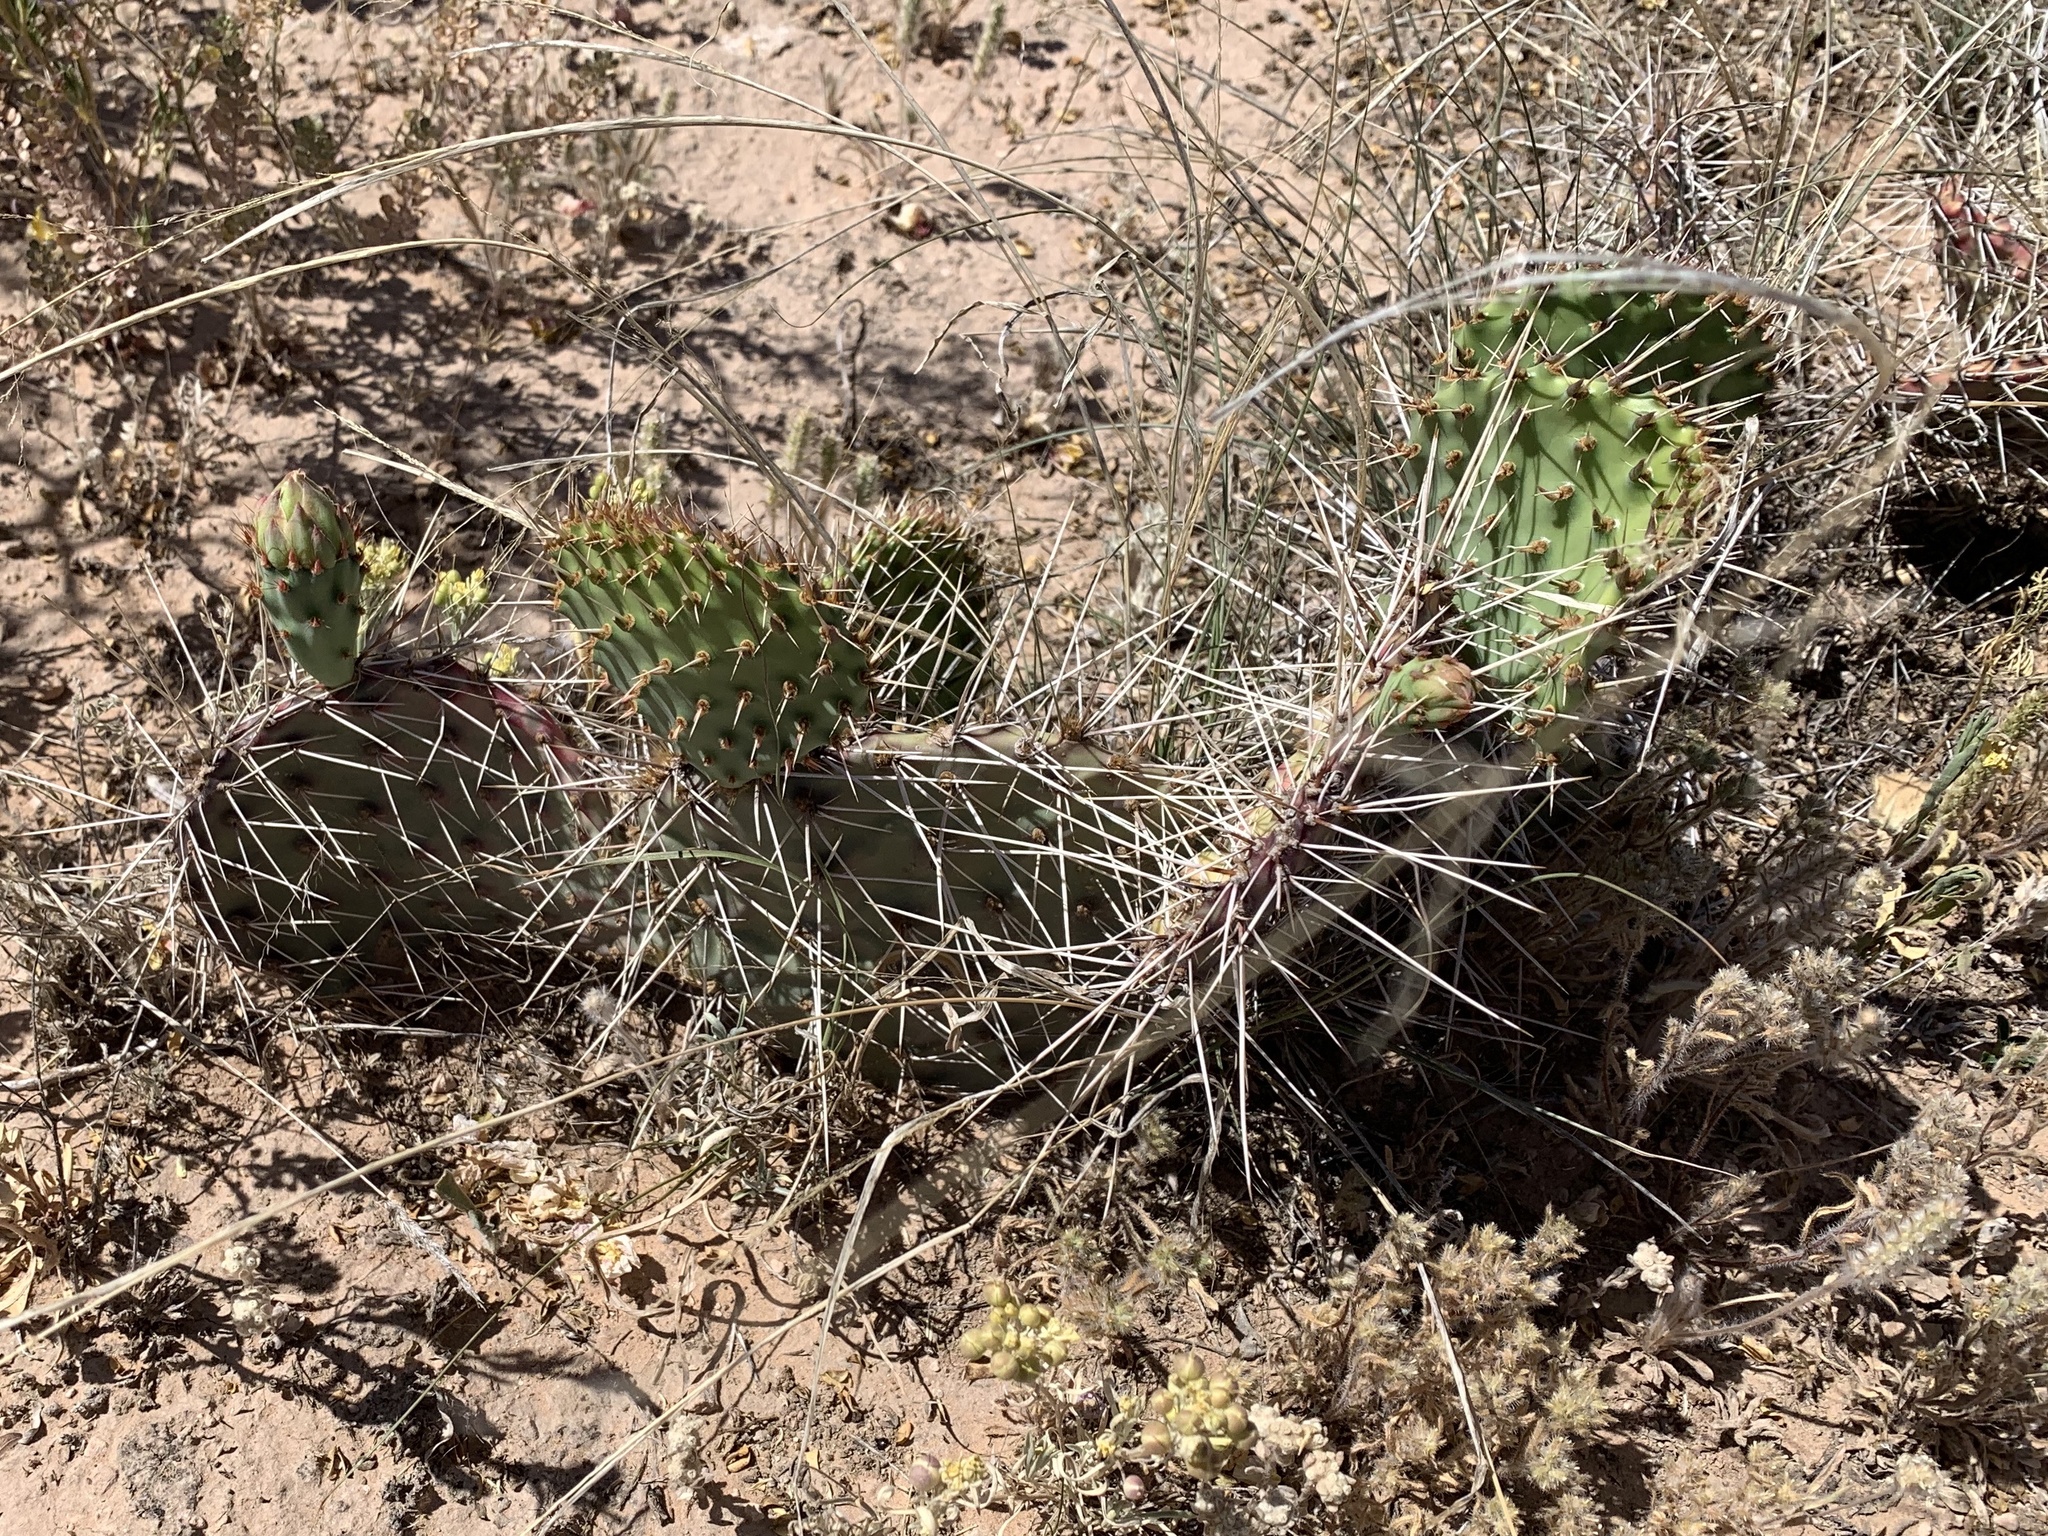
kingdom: Plantae
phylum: Tracheophyta
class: Magnoliopsida
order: Caryophyllales
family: Cactaceae
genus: Opuntia
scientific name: Opuntia macrorhiza
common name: Grassland pricklypear
